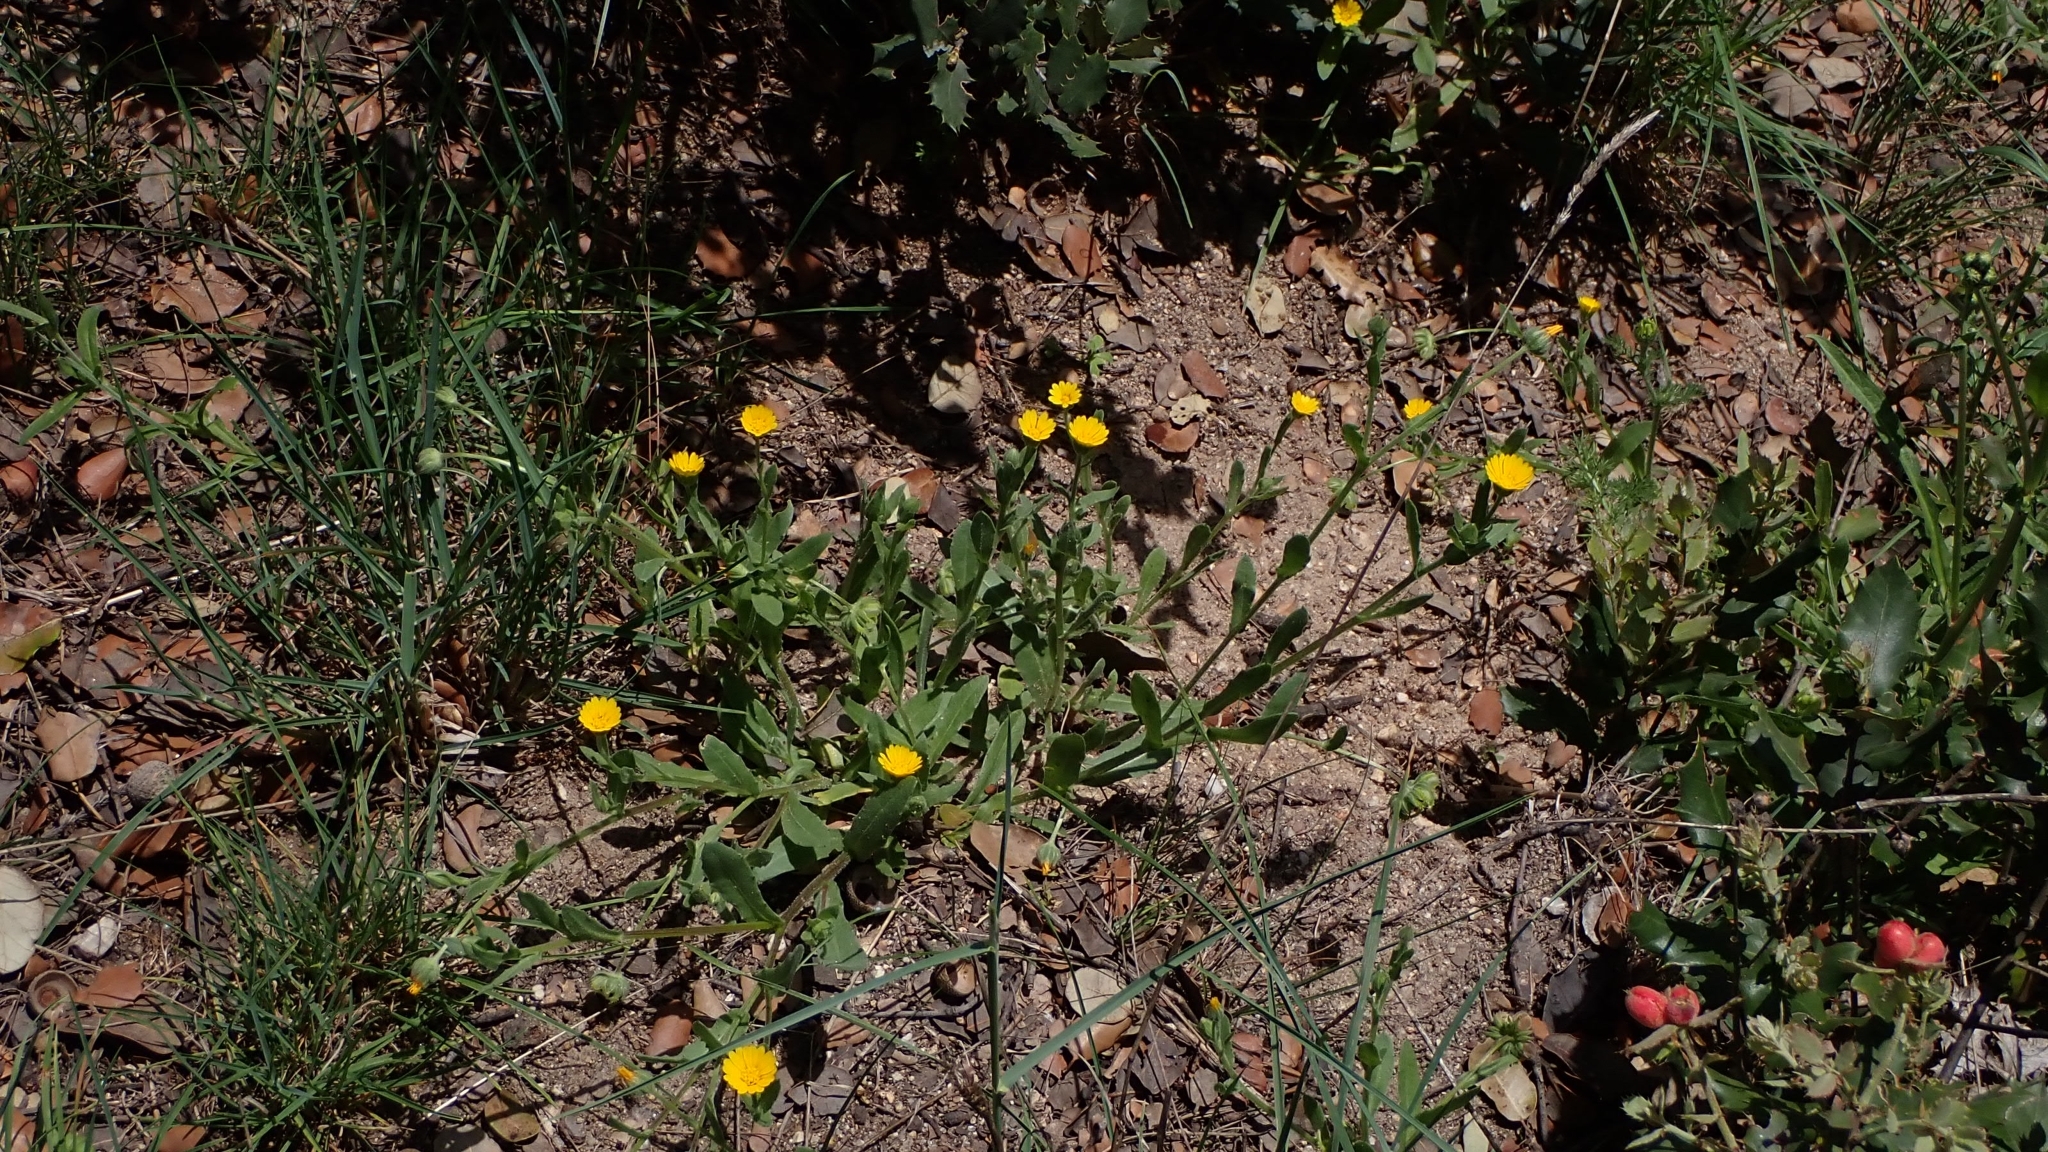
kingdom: Plantae
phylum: Tracheophyta
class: Magnoliopsida
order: Asterales
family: Asteraceae
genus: Calendula
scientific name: Calendula arvensis
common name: Field marigold
